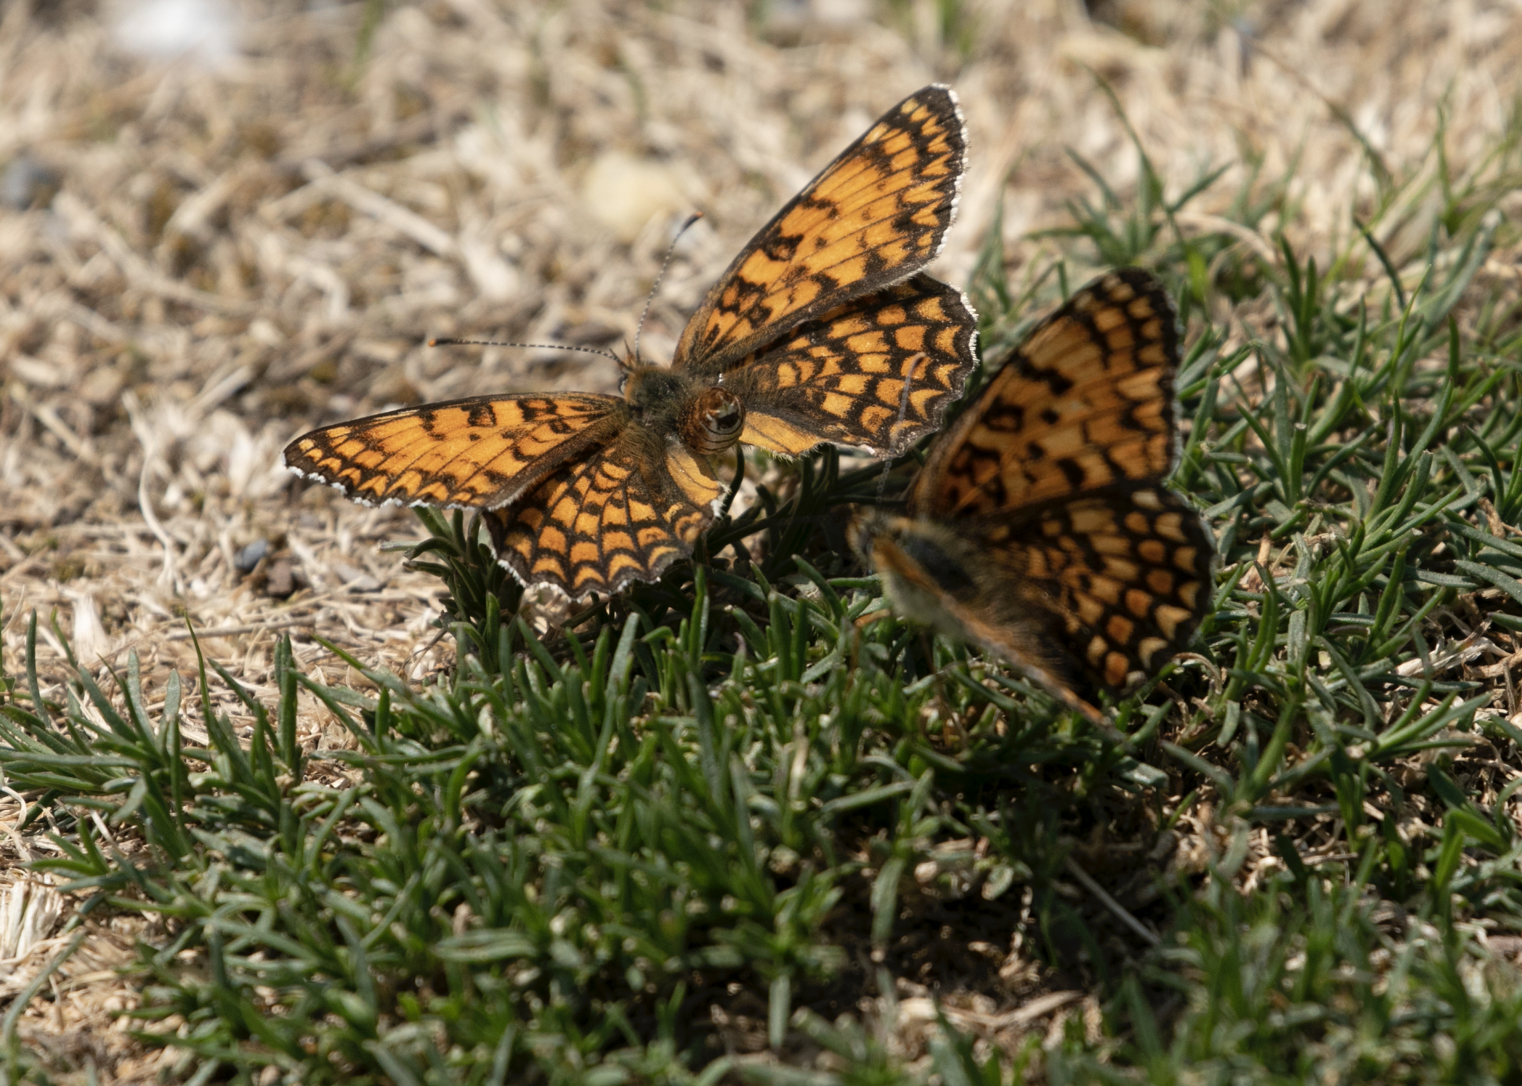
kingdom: Animalia
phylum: Arthropoda
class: Insecta
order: Lepidoptera
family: Nymphalidae
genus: Melitaea
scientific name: Melitaea phoebe
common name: Knapweed fritillary
